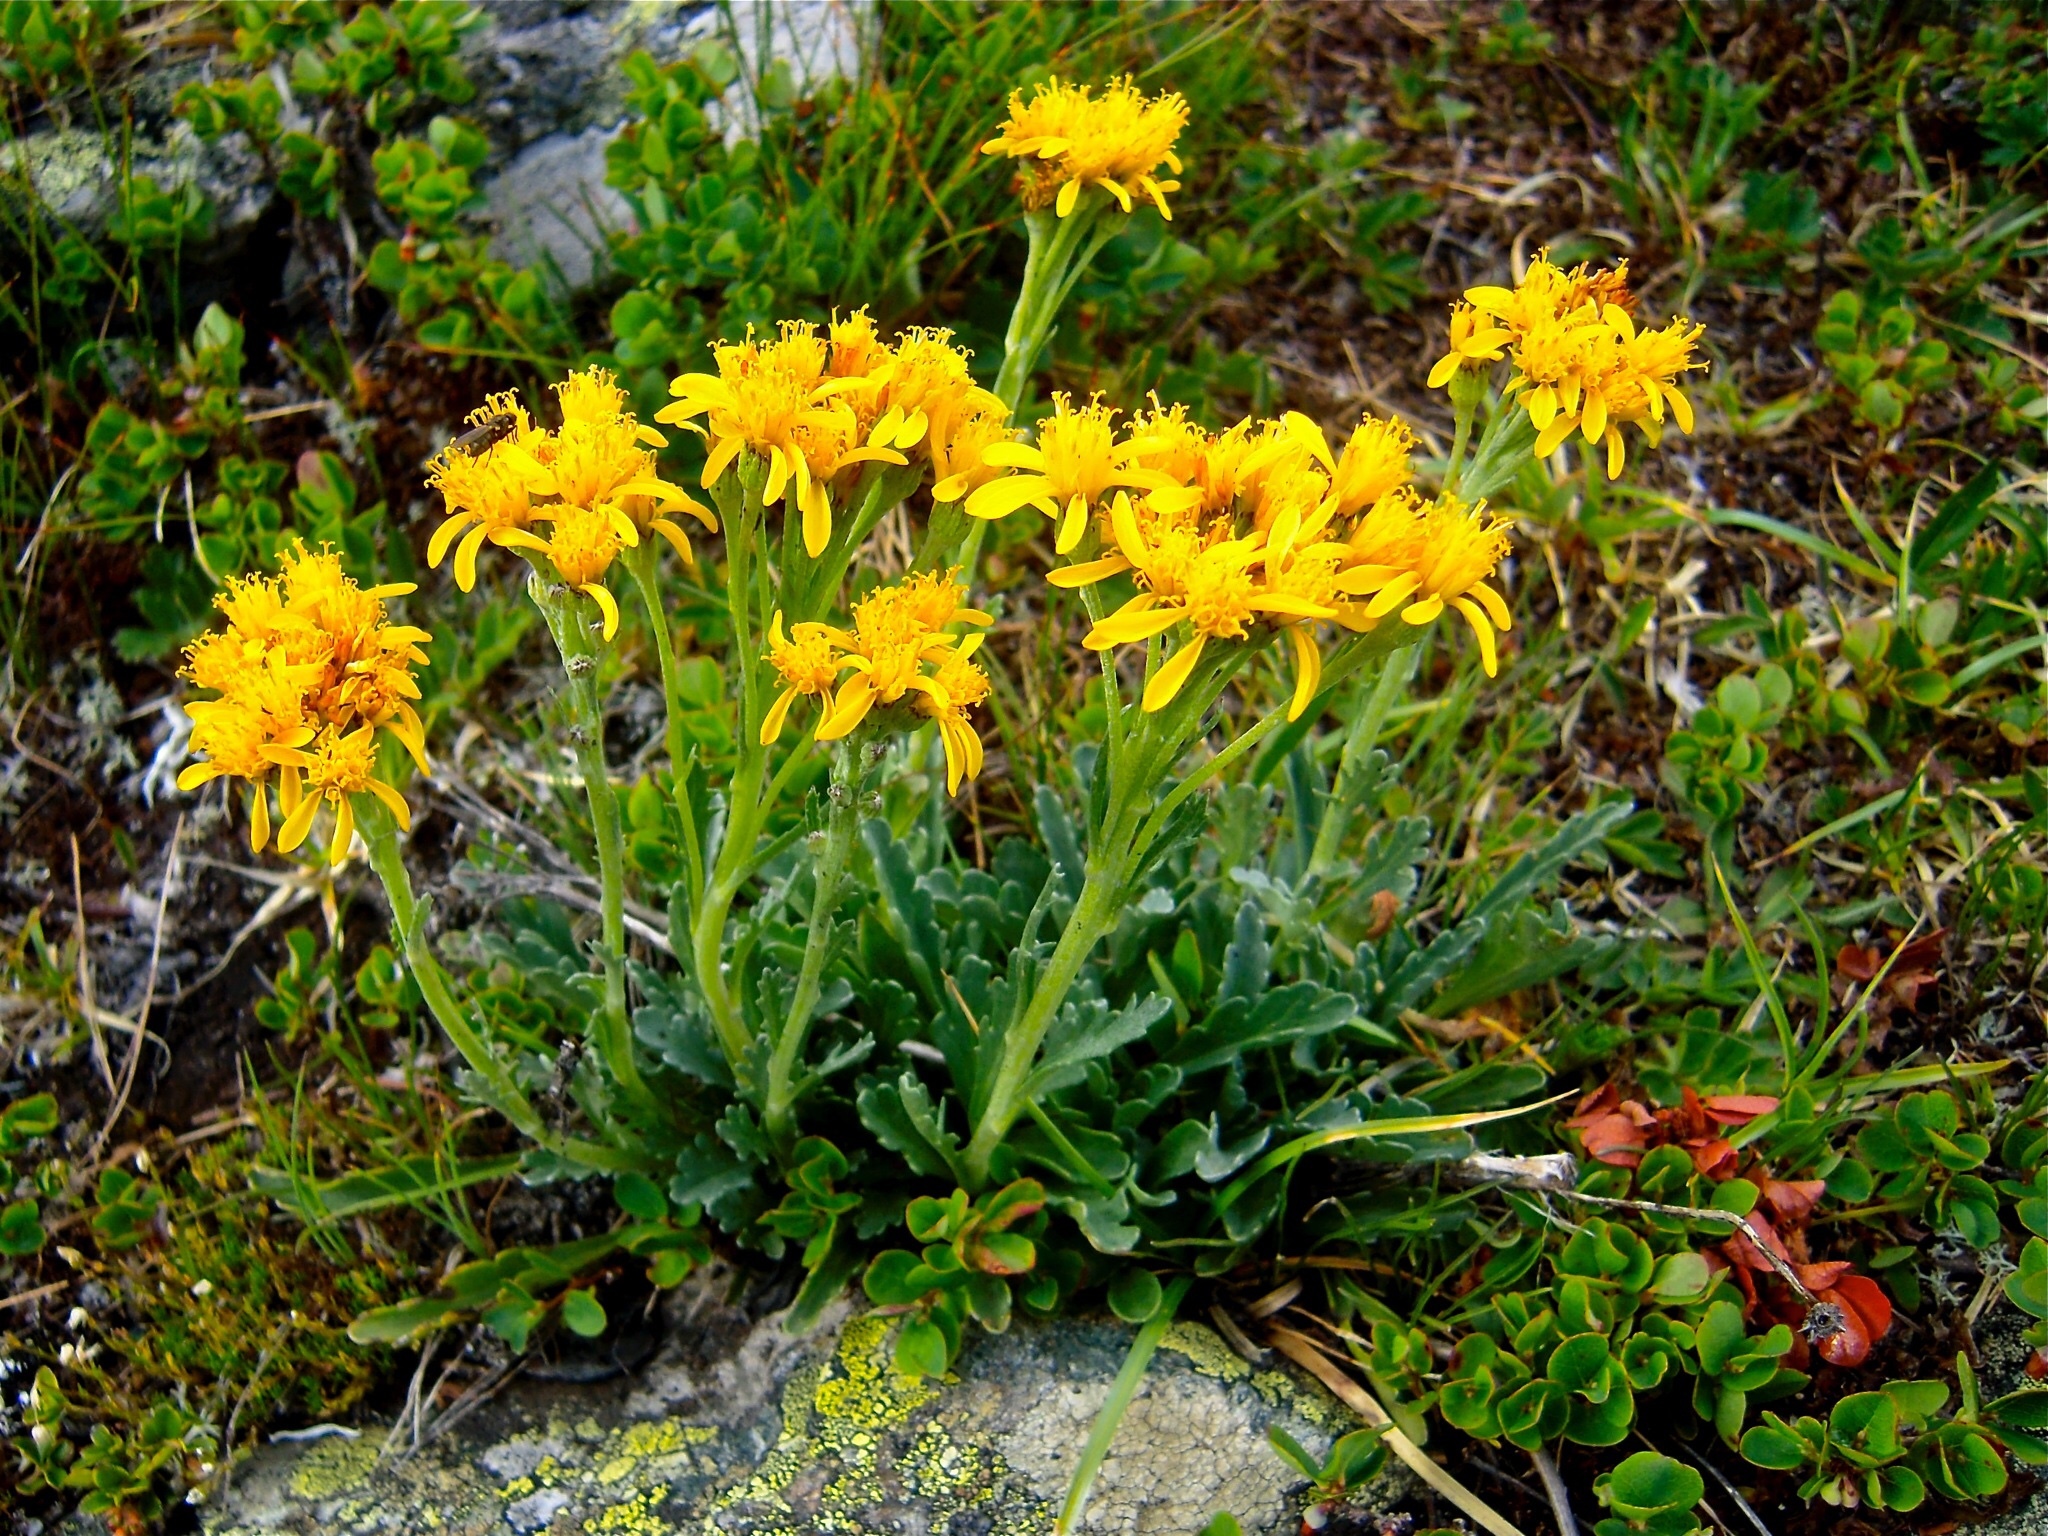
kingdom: Plantae
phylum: Tracheophyta
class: Magnoliopsida
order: Asterales
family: Asteraceae
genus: Jacobaea
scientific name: Jacobaea carniolica
